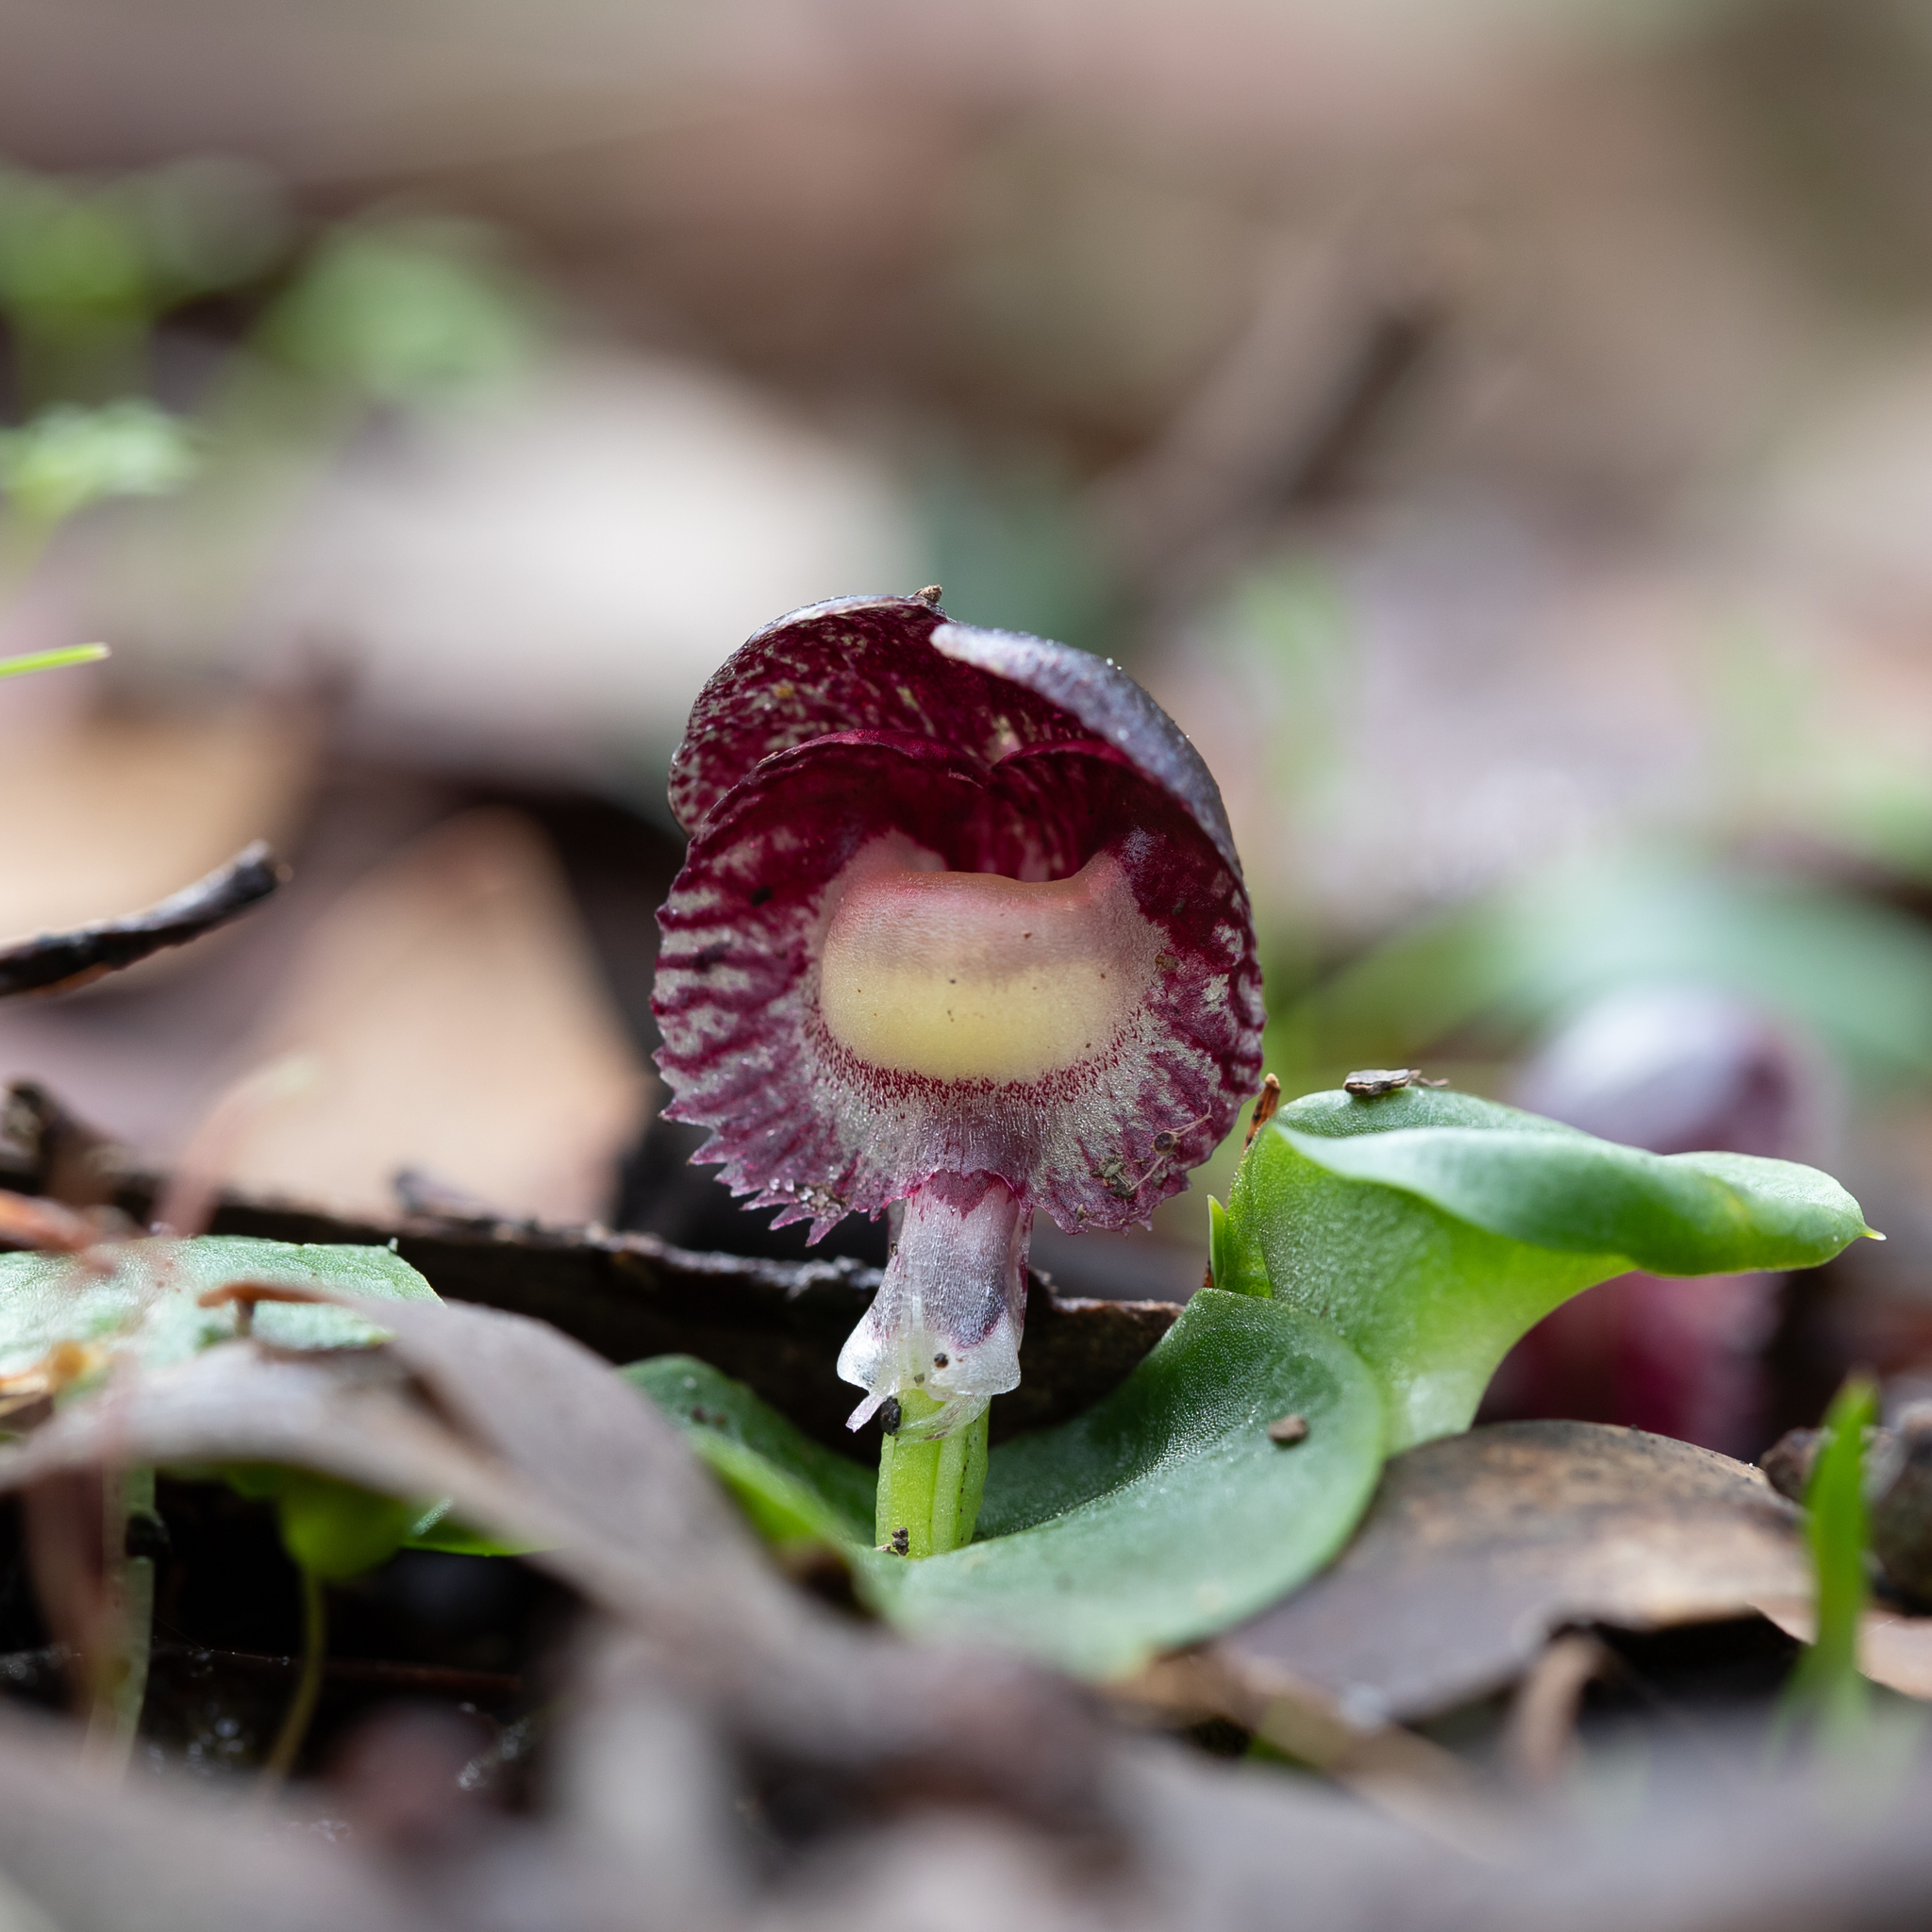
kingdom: Plantae
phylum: Tracheophyta
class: Liliopsida
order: Asparagales
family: Orchidaceae
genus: Corybas
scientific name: Corybas diemenicus
